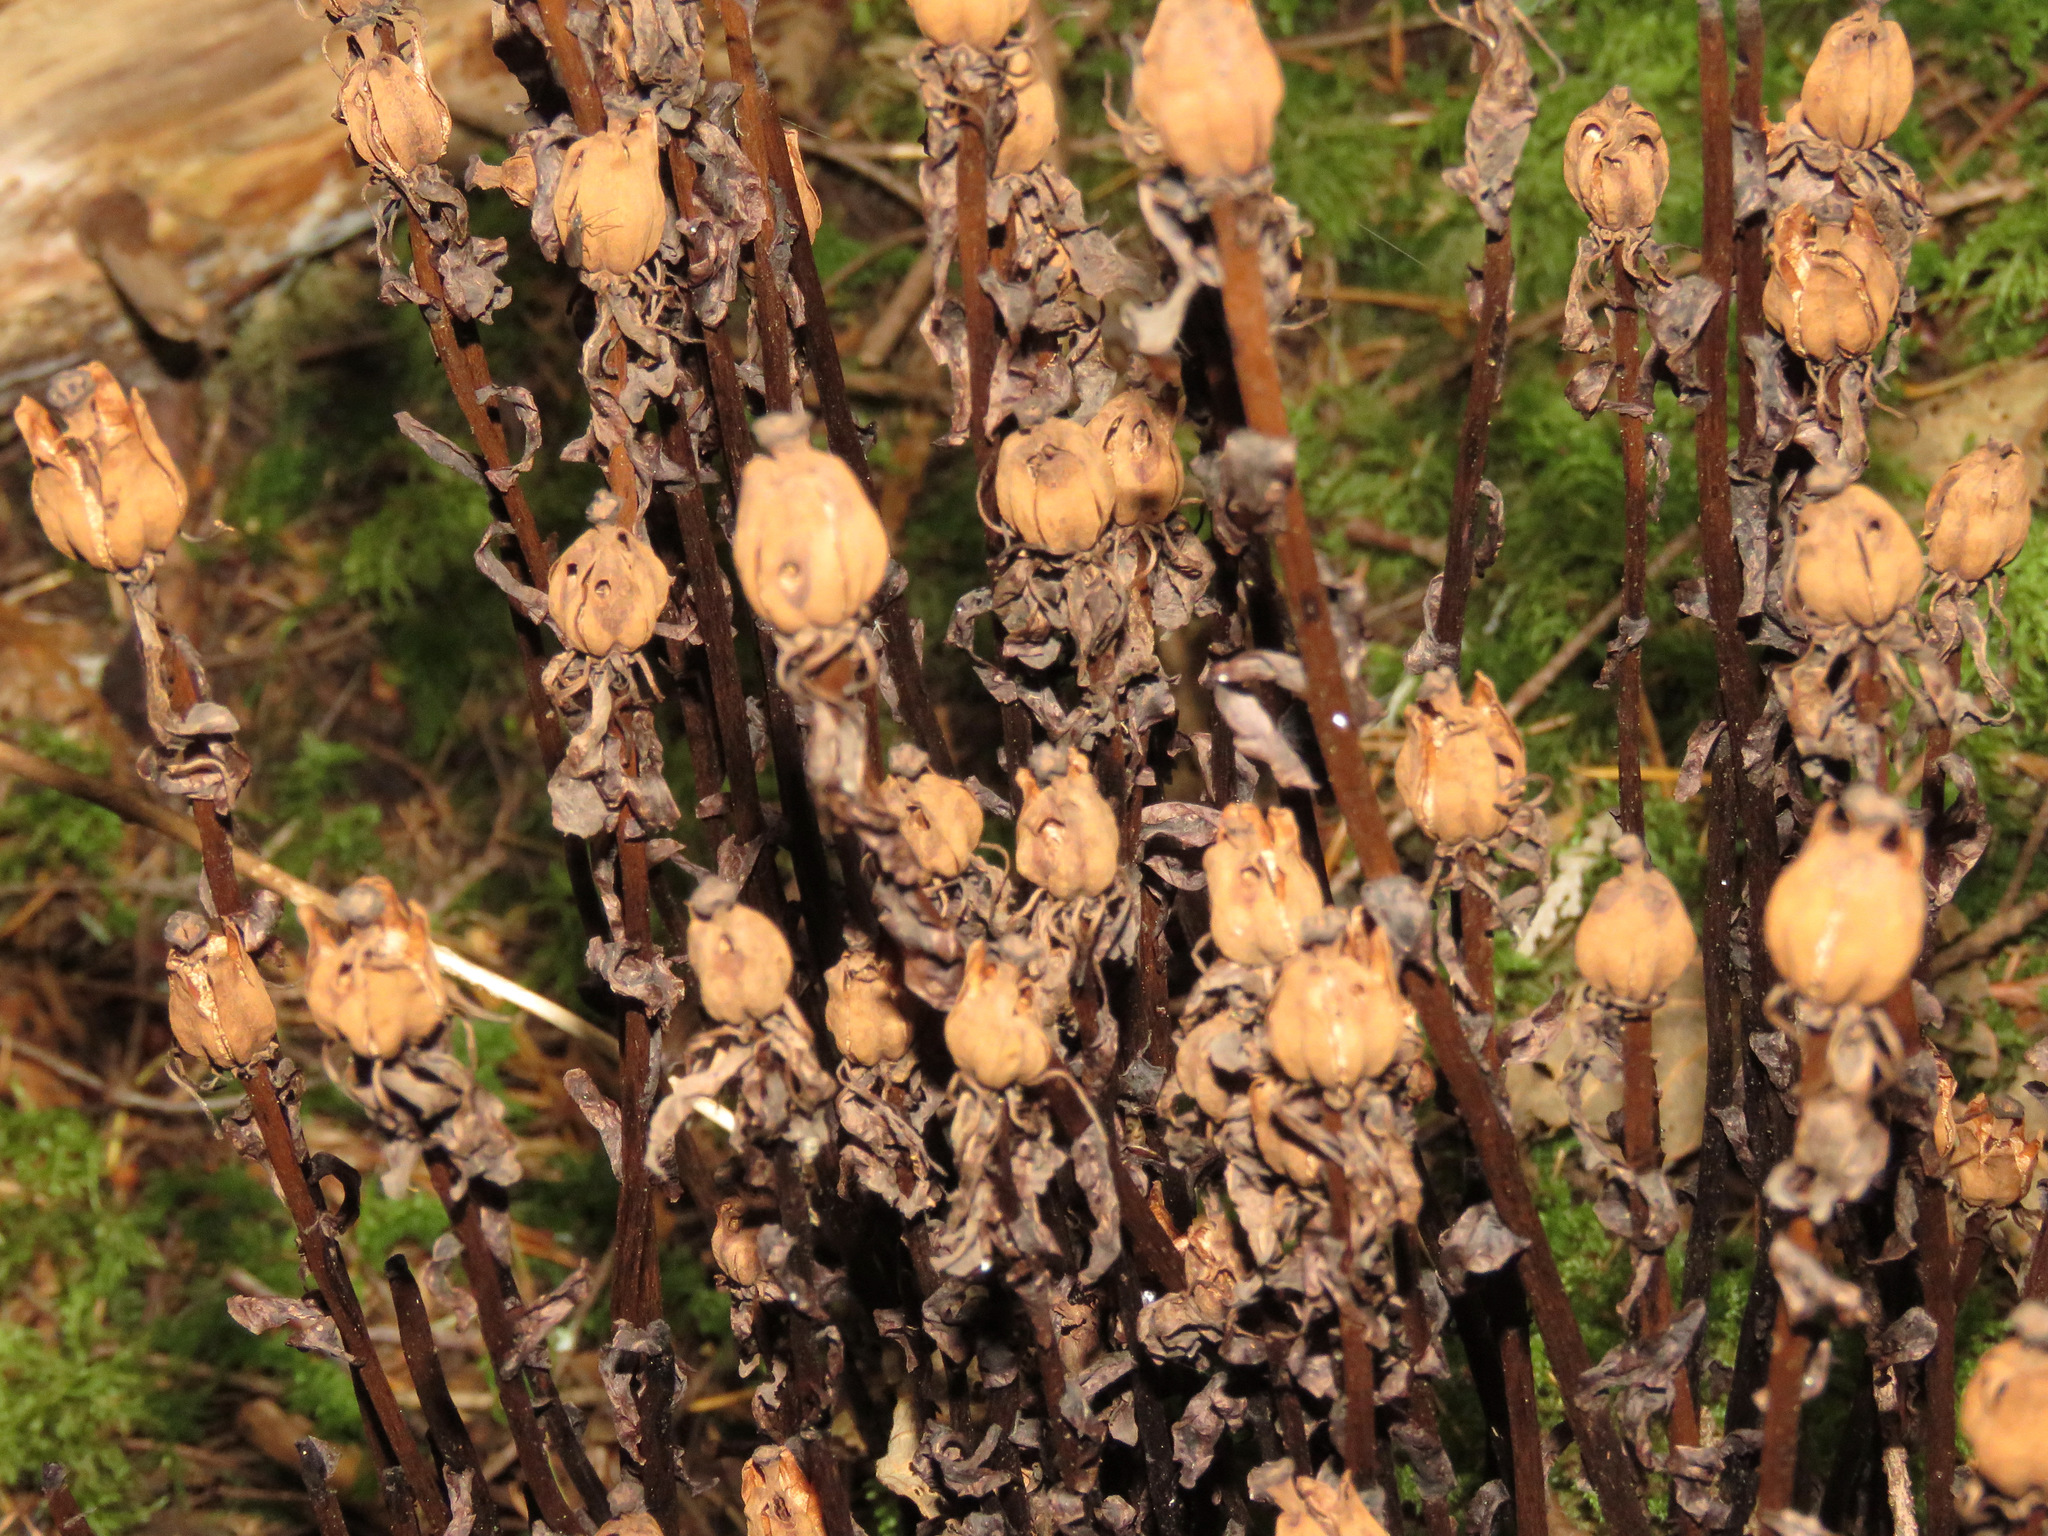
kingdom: Plantae
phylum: Tracheophyta
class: Magnoliopsida
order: Ericales
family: Ericaceae
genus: Monotropa
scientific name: Monotropa uniflora
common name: Convulsion root
